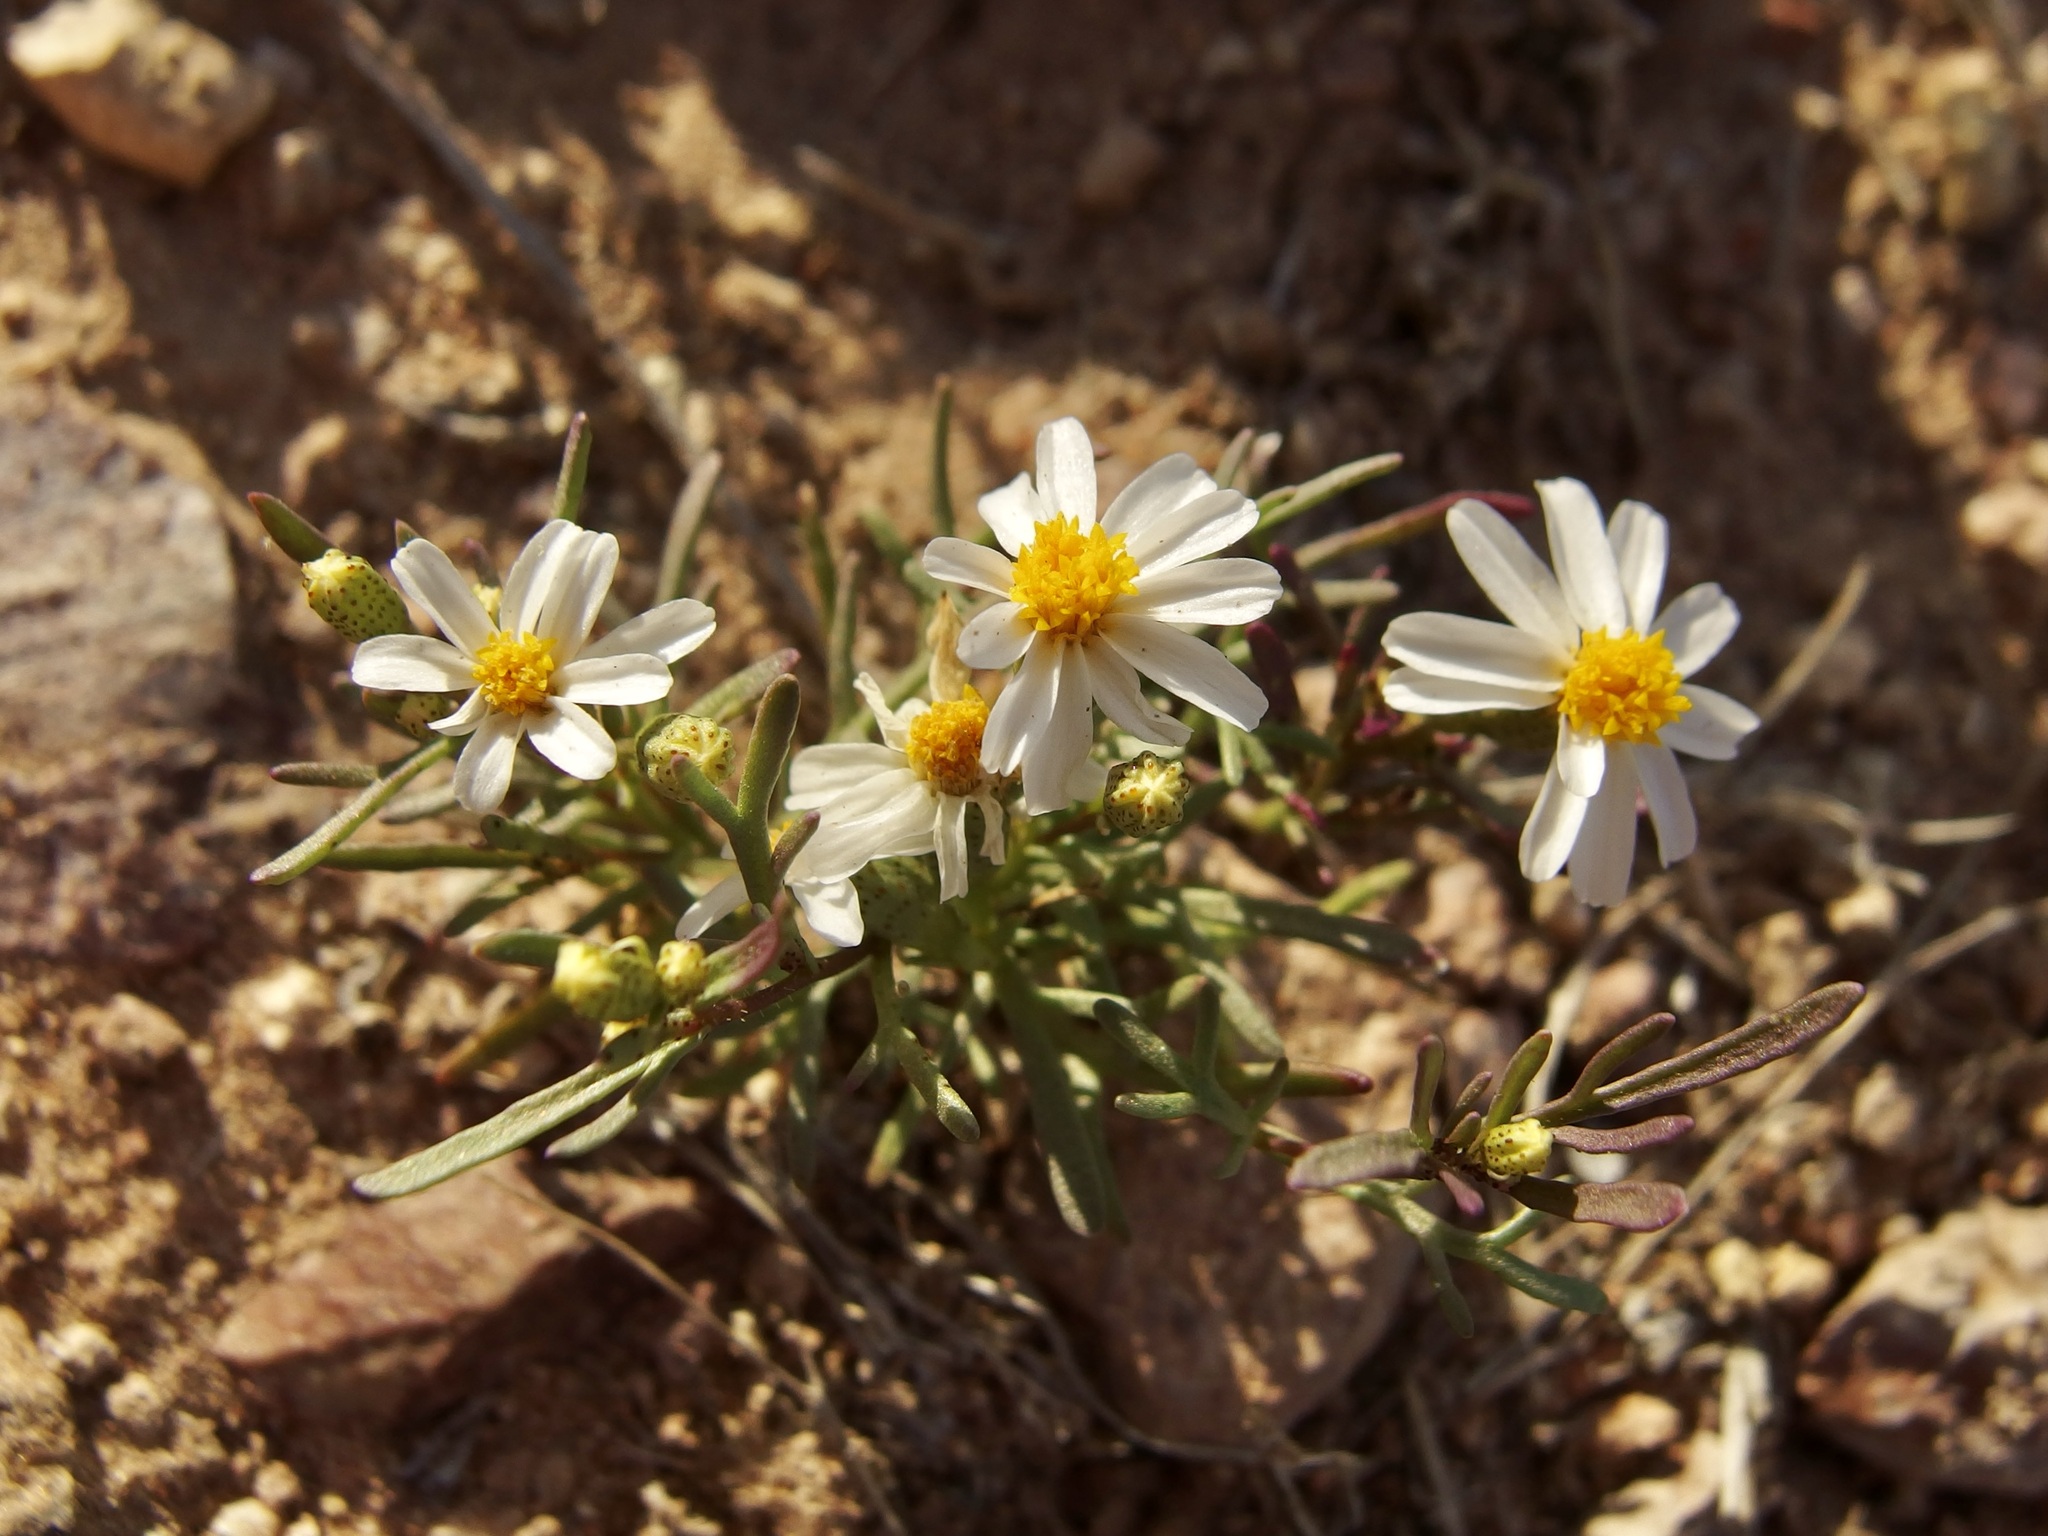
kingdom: Plantae
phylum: Tracheophyta
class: Magnoliopsida
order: Asterales
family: Asteraceae
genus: Thymophylla
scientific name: Thymophylla concinna
